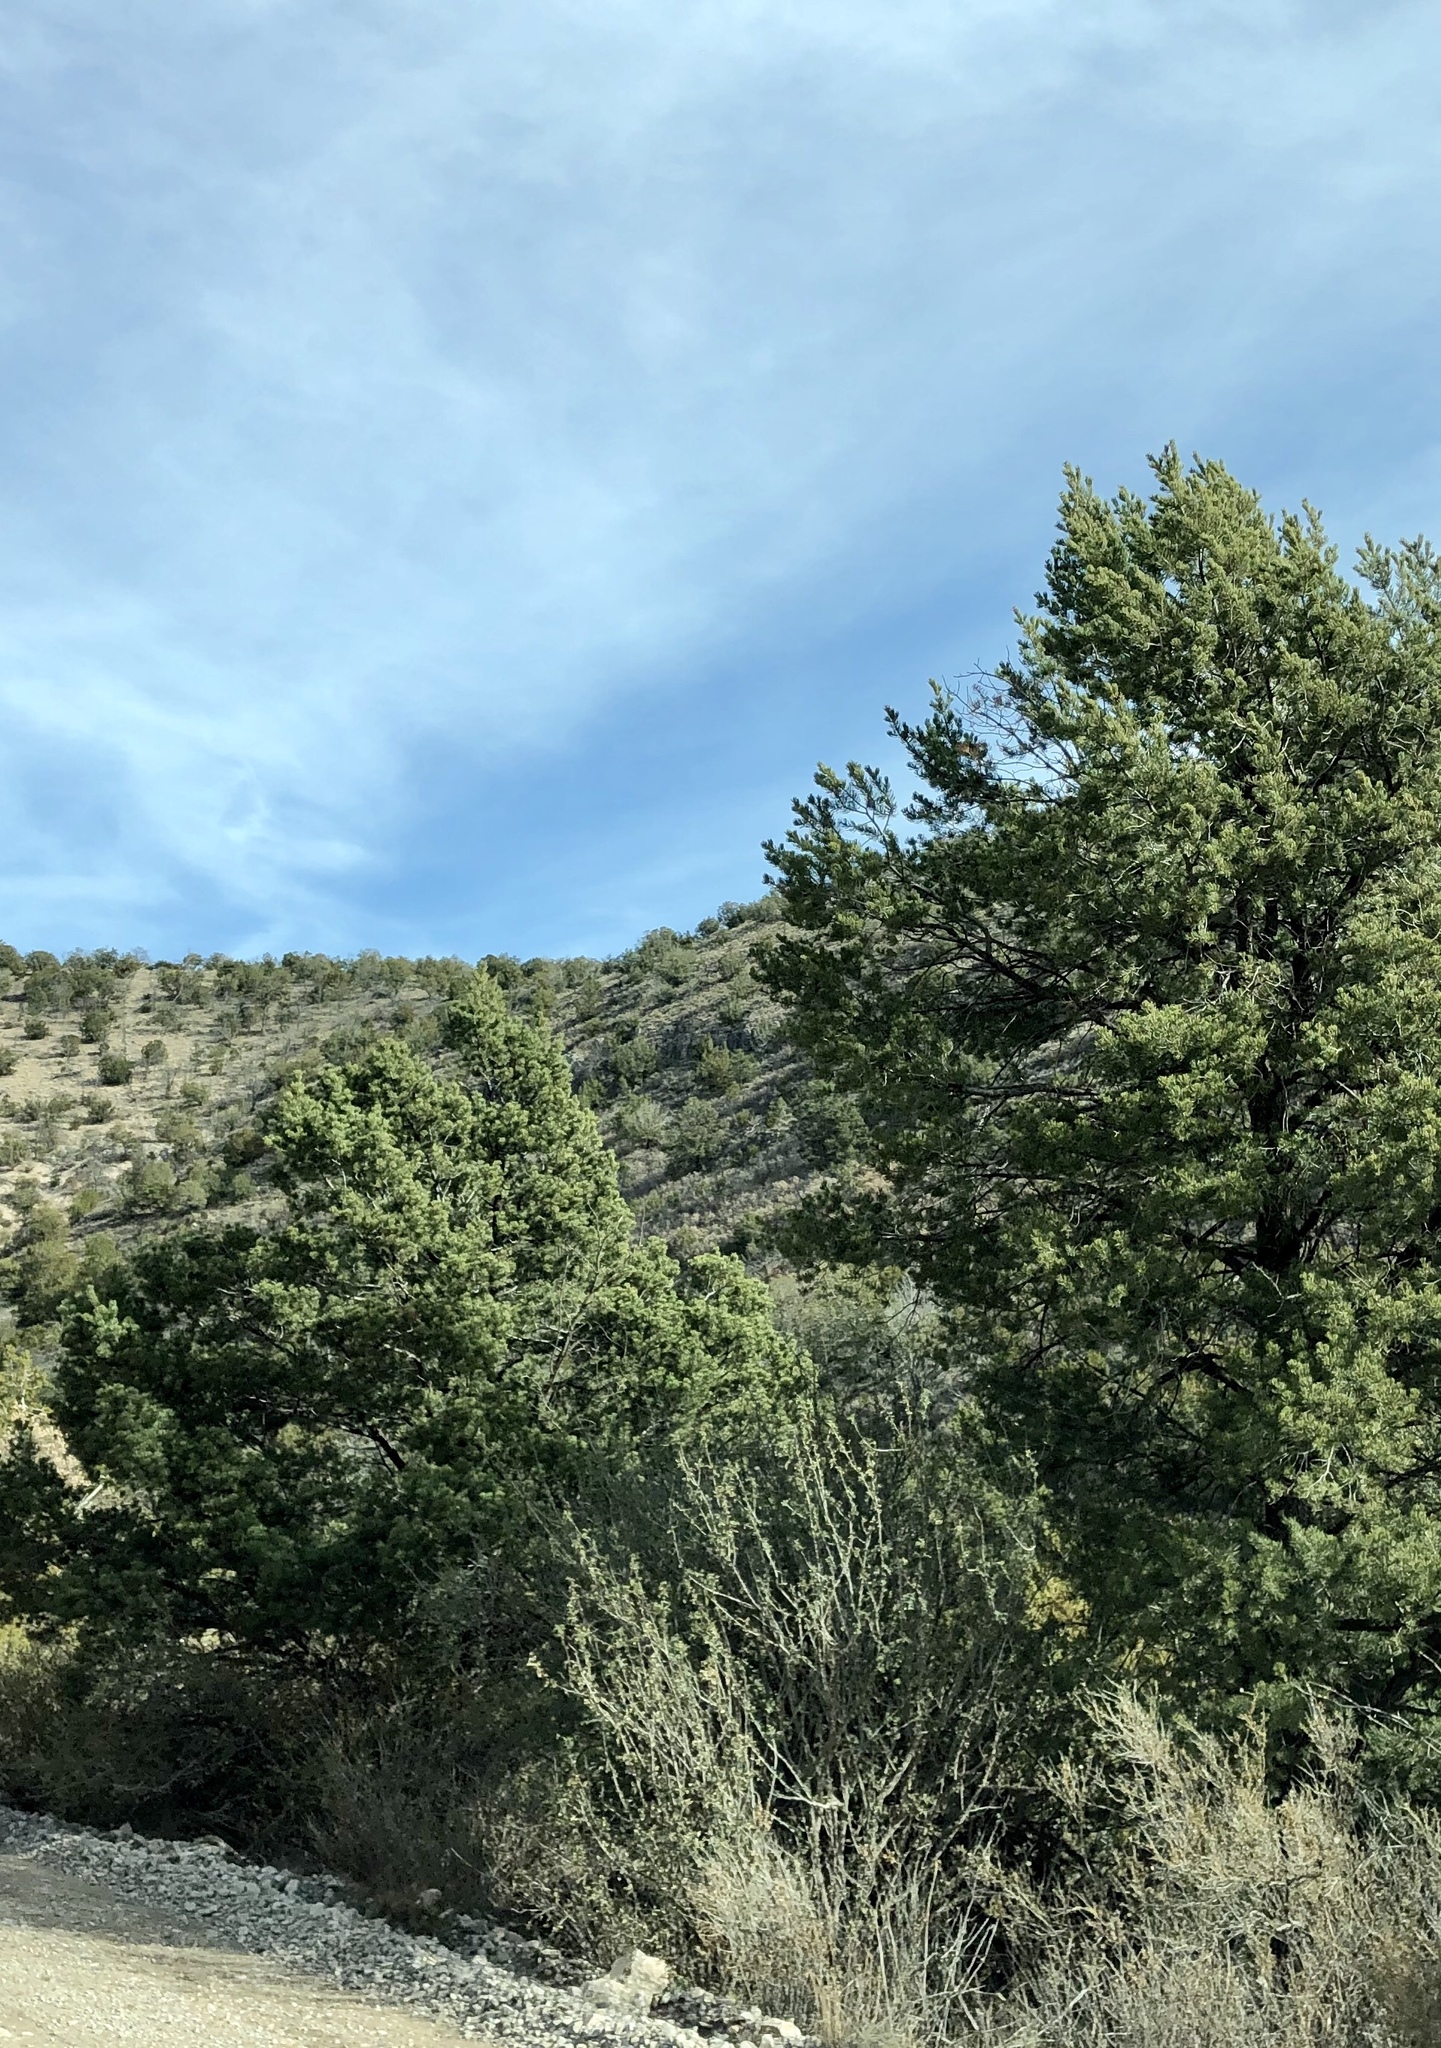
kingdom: Plantae
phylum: Tracheophyta
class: Pinopsida
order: Pinales
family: Pinaceae
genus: Pinus
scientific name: Pinus edulis
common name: Colorado pinyon
